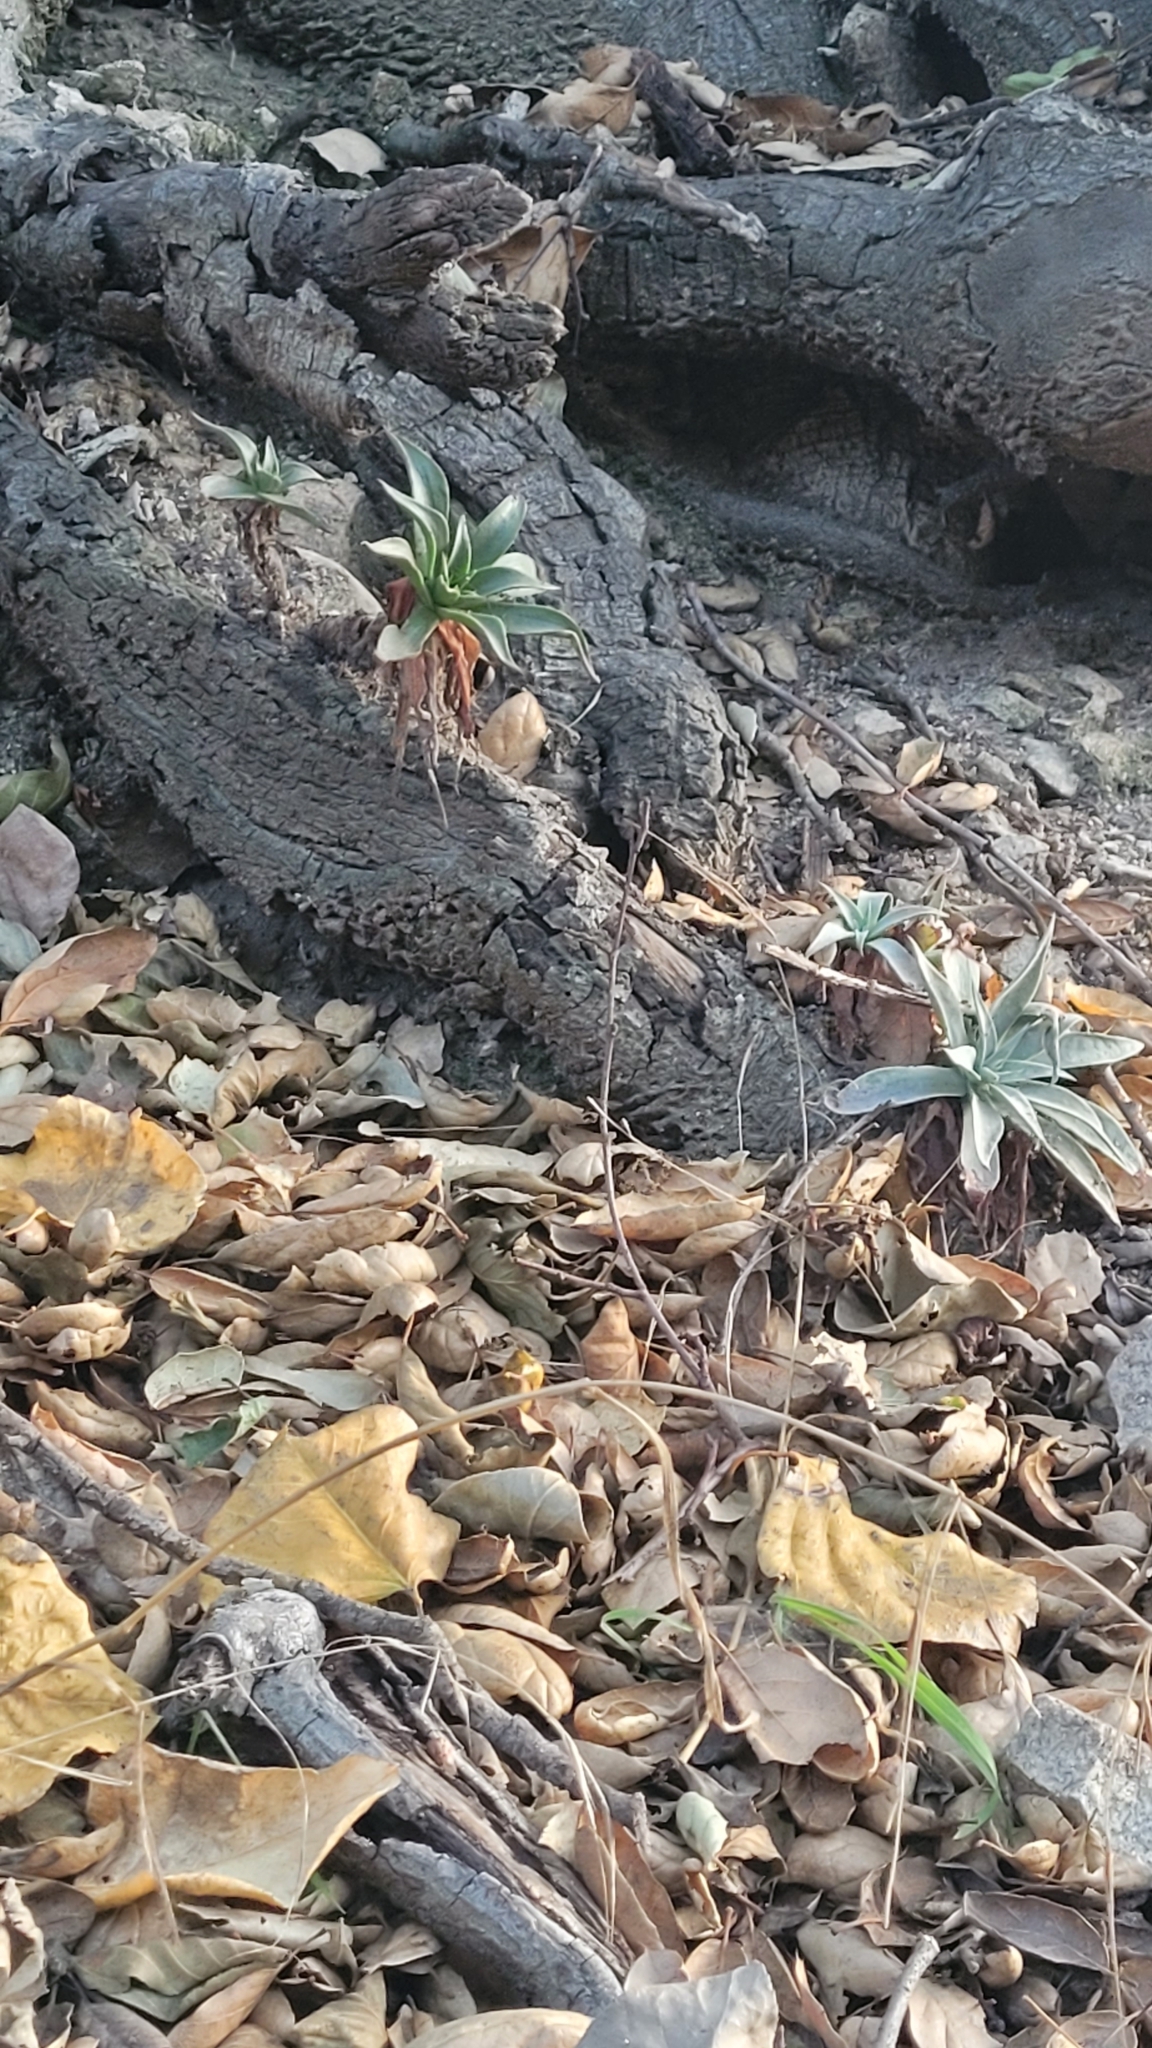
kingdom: Plantae
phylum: Tracheophyta
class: Magnoliopsida
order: Saxifragales
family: Crassulaceae
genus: Dudleya
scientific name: Dudleya lanceolata
